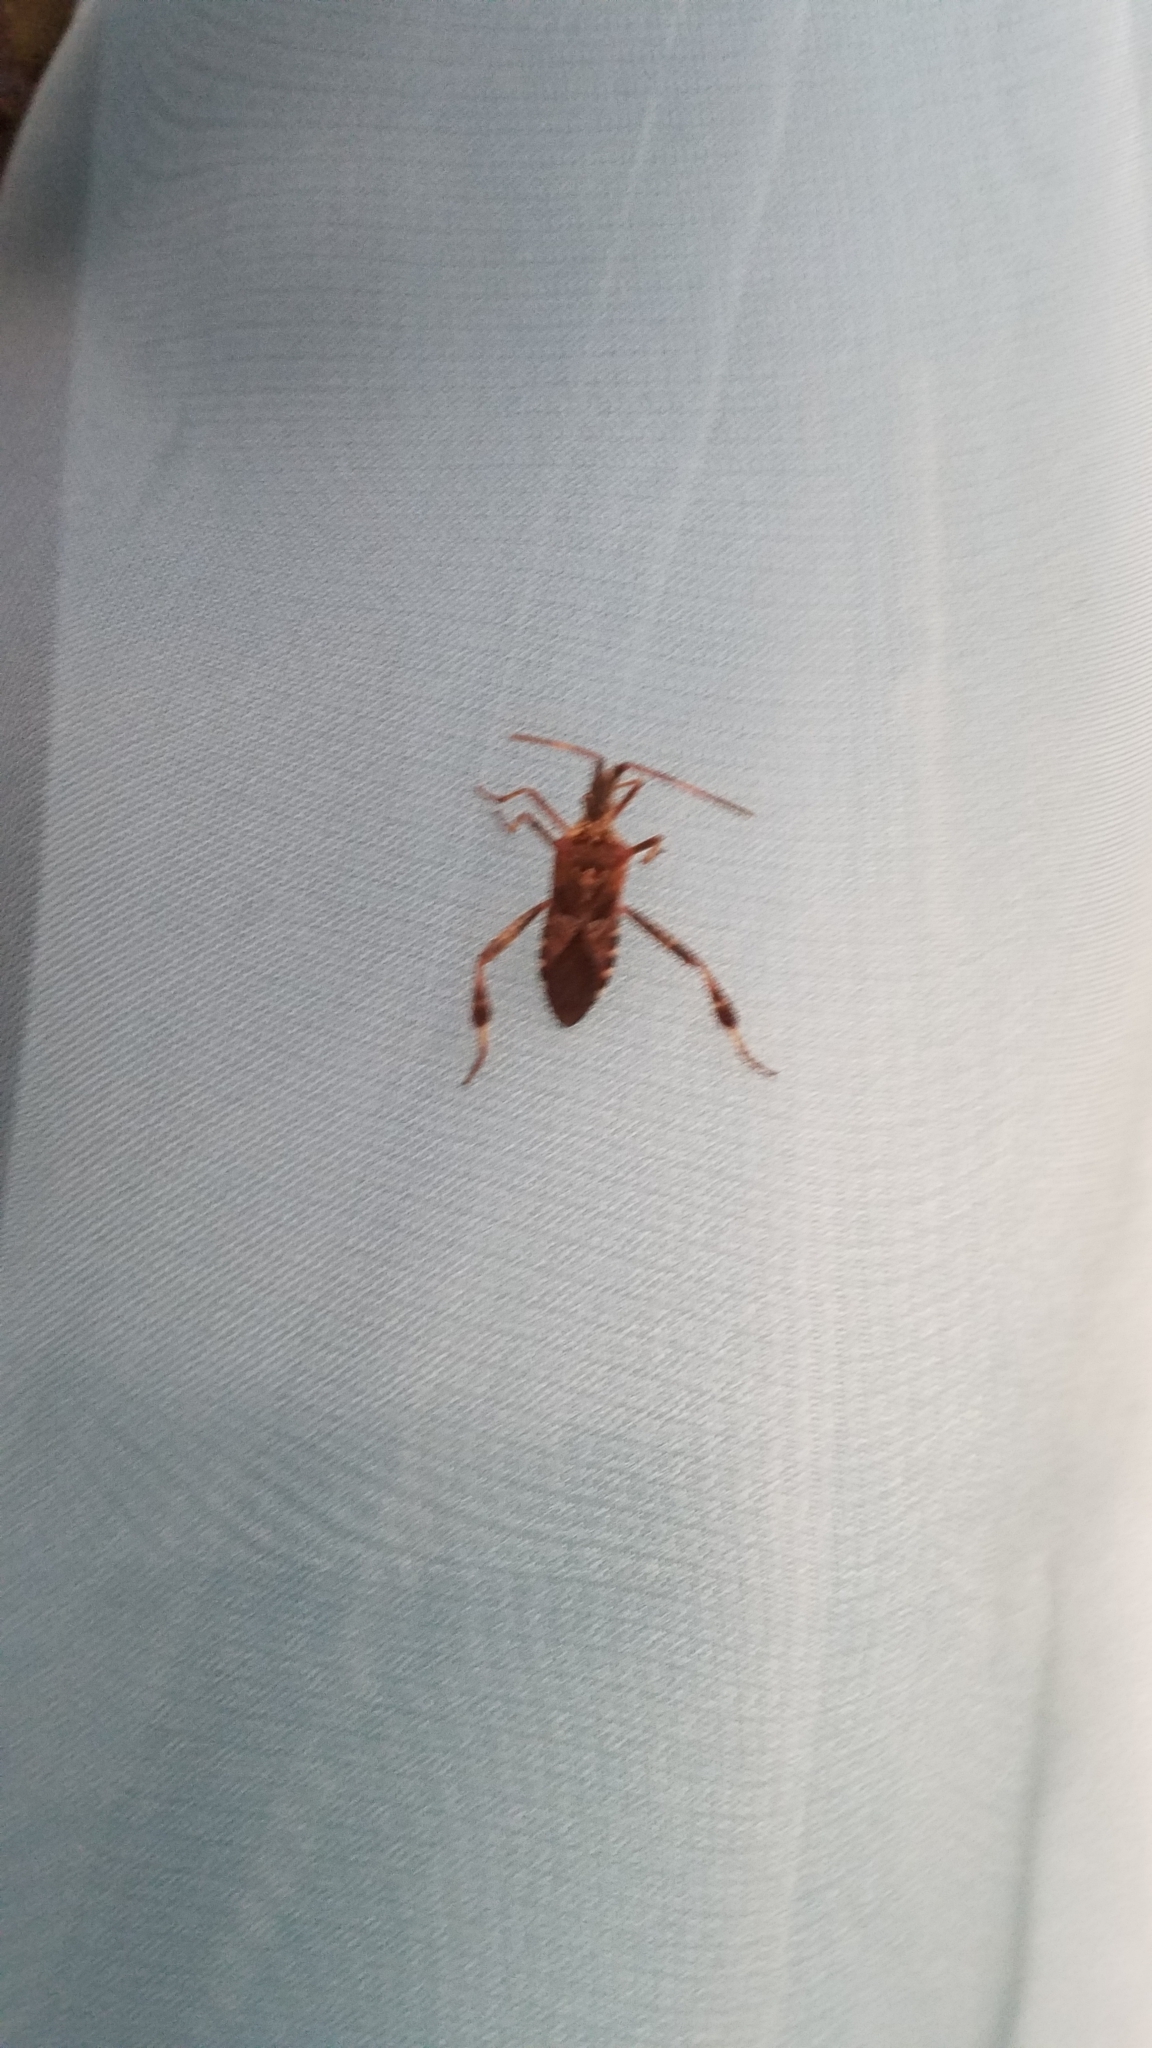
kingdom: Animalia
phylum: Arthropoda
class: Insecta
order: Hemiptera
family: Coreidae
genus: Leptoglossus
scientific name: Leptoglossus occidentalis
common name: Western conifer-seed bug
